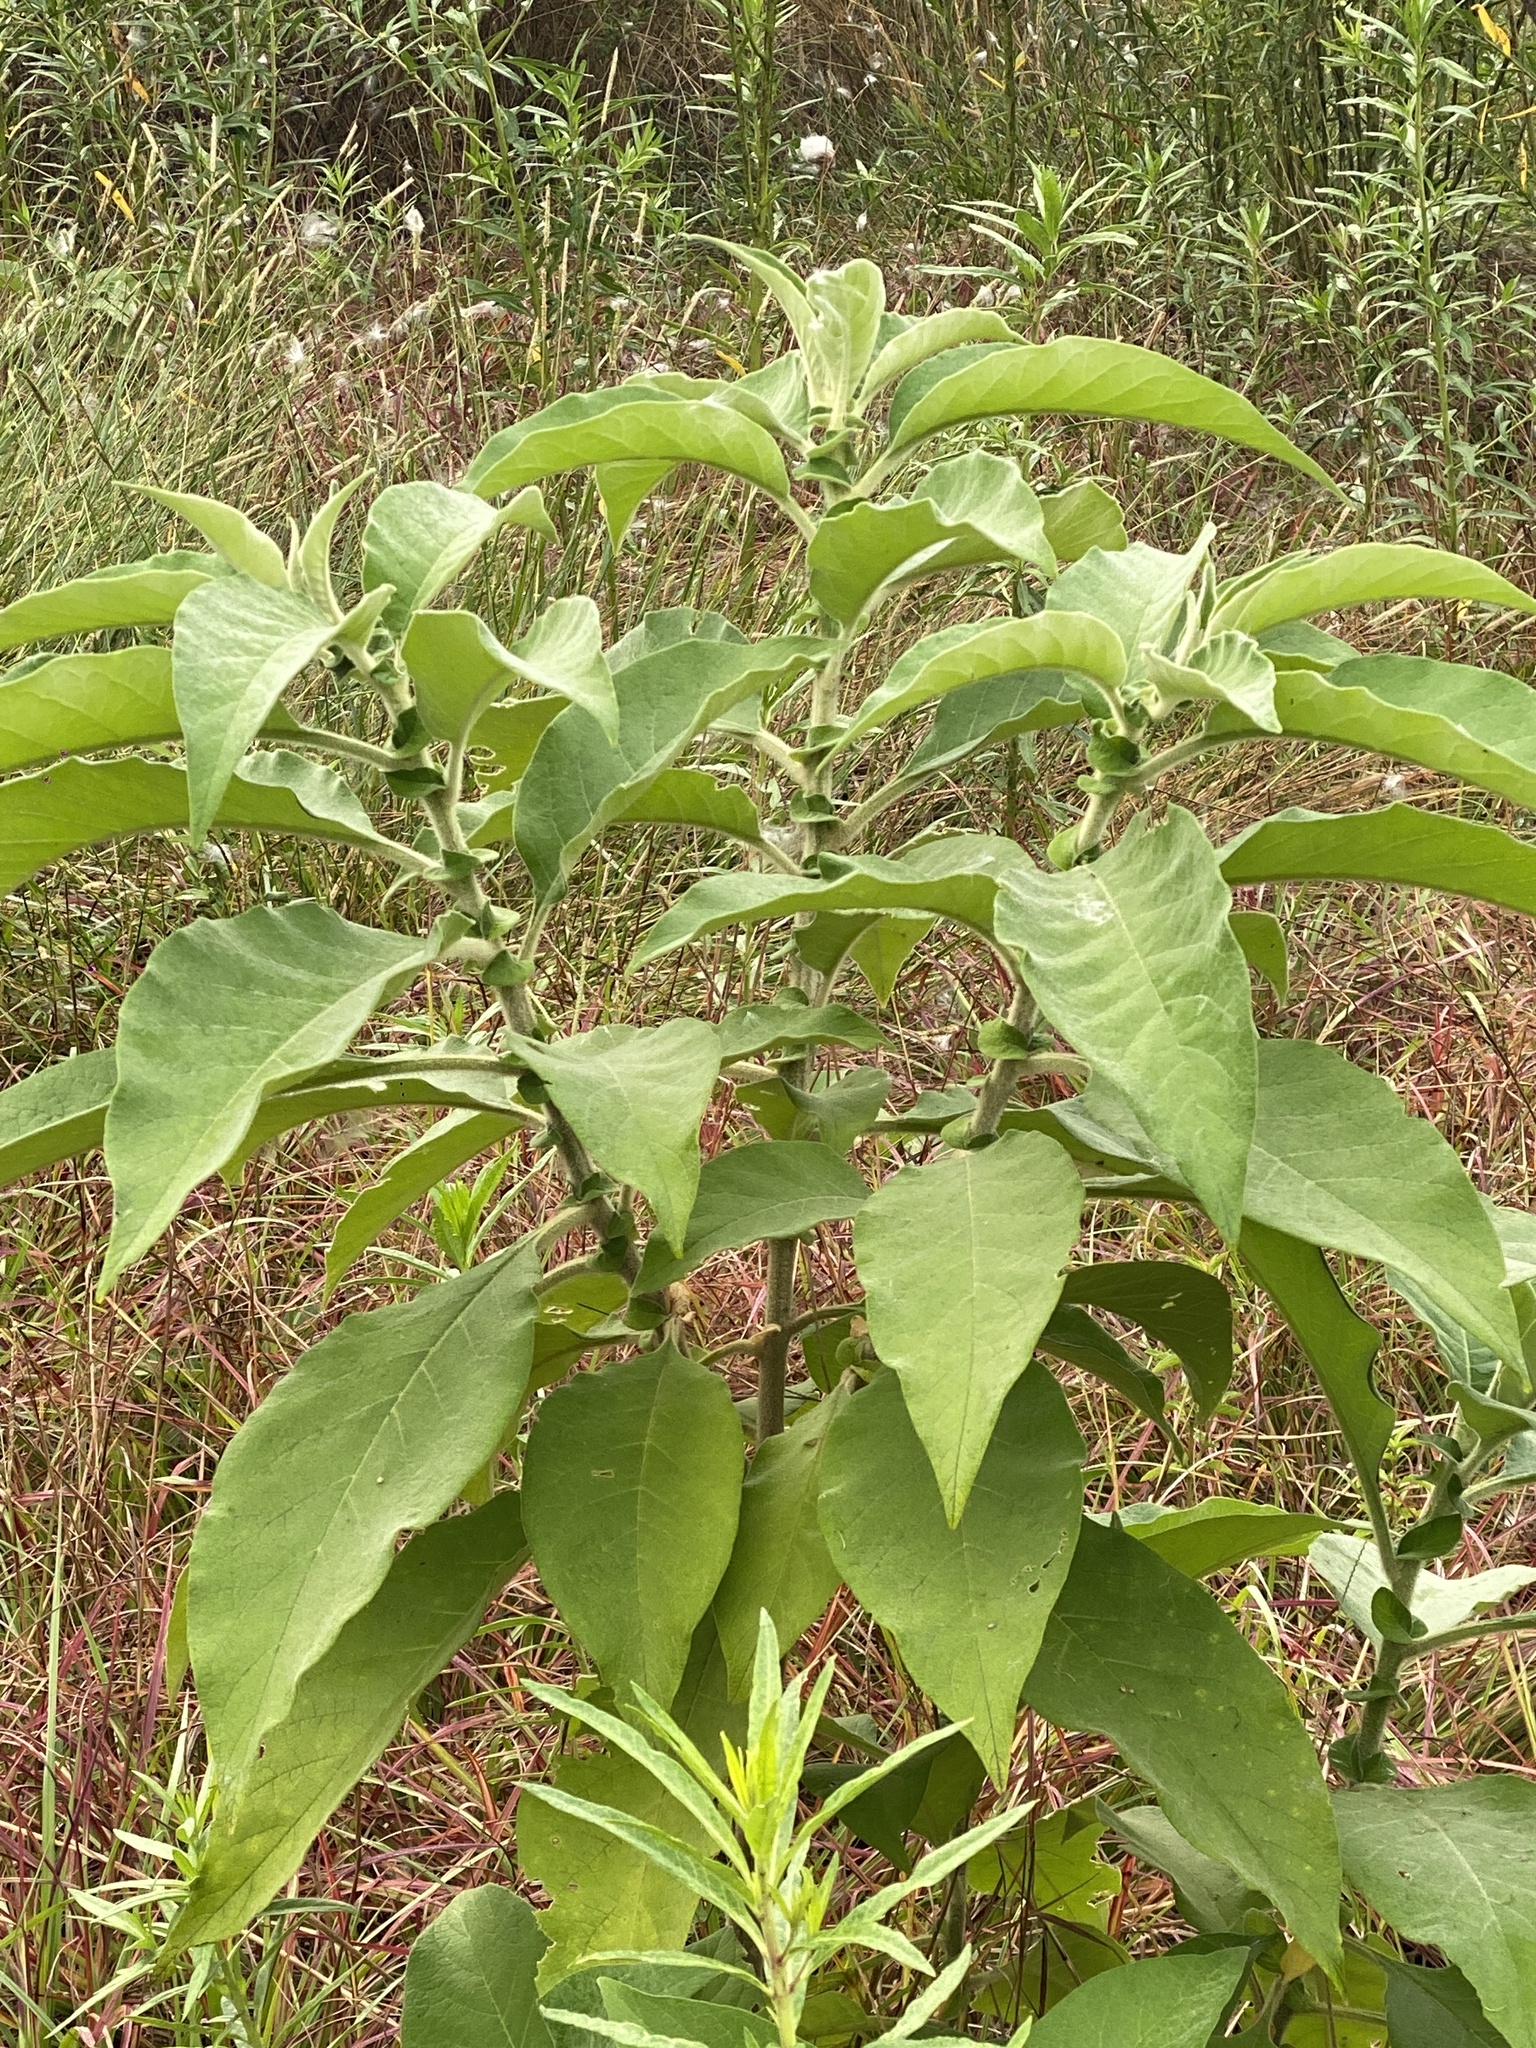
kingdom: Plantae
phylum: Tracheophyta
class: Magnoliopsida
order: Solanales
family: Solanaceae
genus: Solanum
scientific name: Solanum mauritianum
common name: Earleaf nightshade
